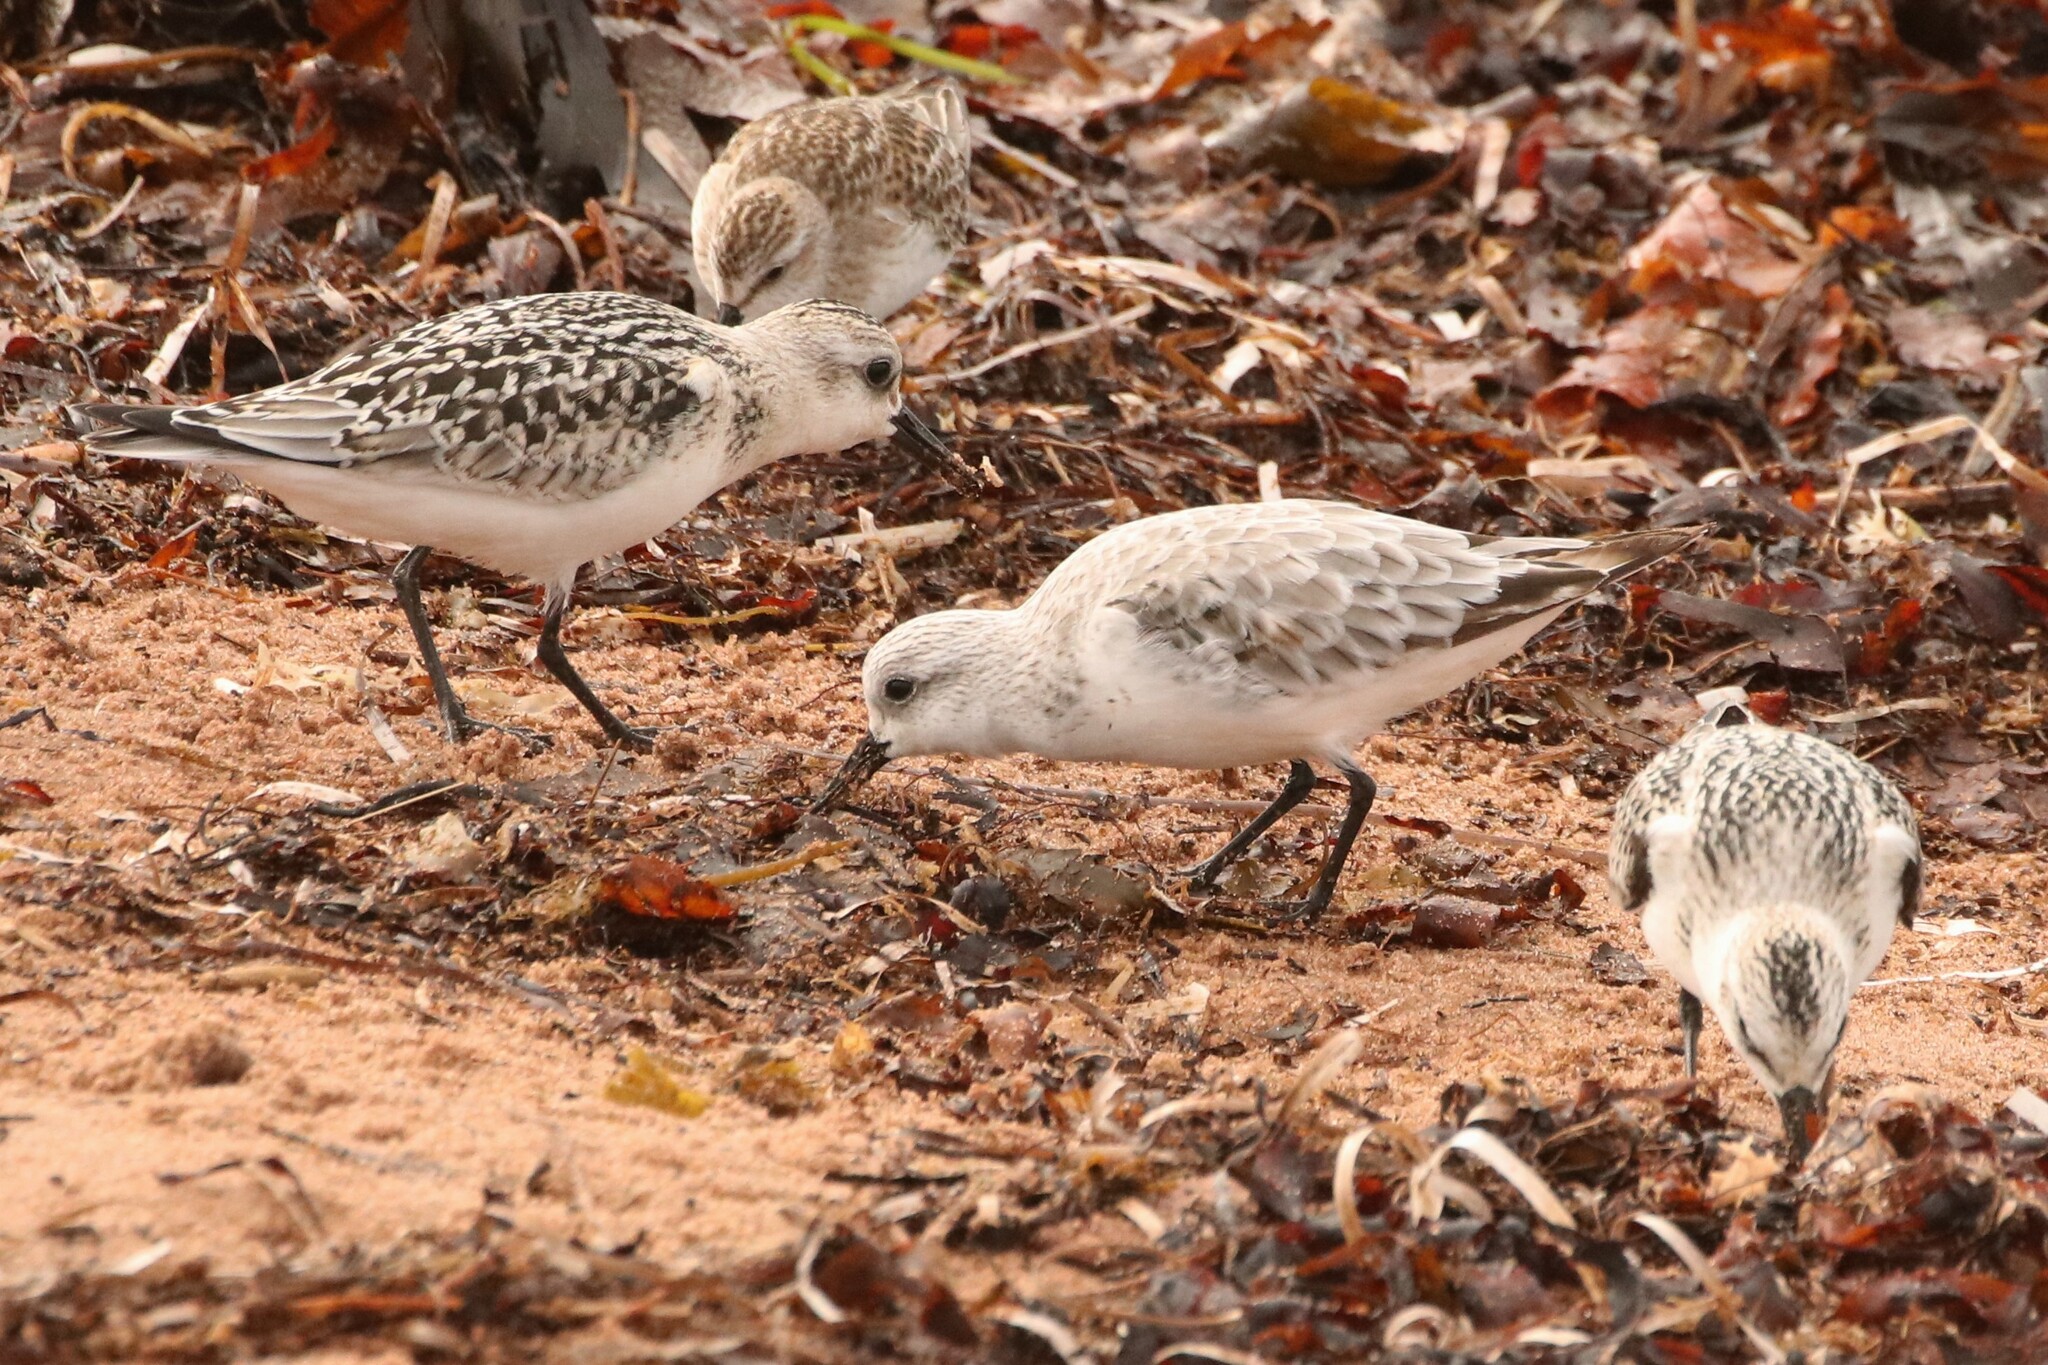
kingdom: Animalia
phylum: Chordata
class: Aves
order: Charadriiformes
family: Scolopacidae
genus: Calidris
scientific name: Calidris alba
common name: Sanderling
